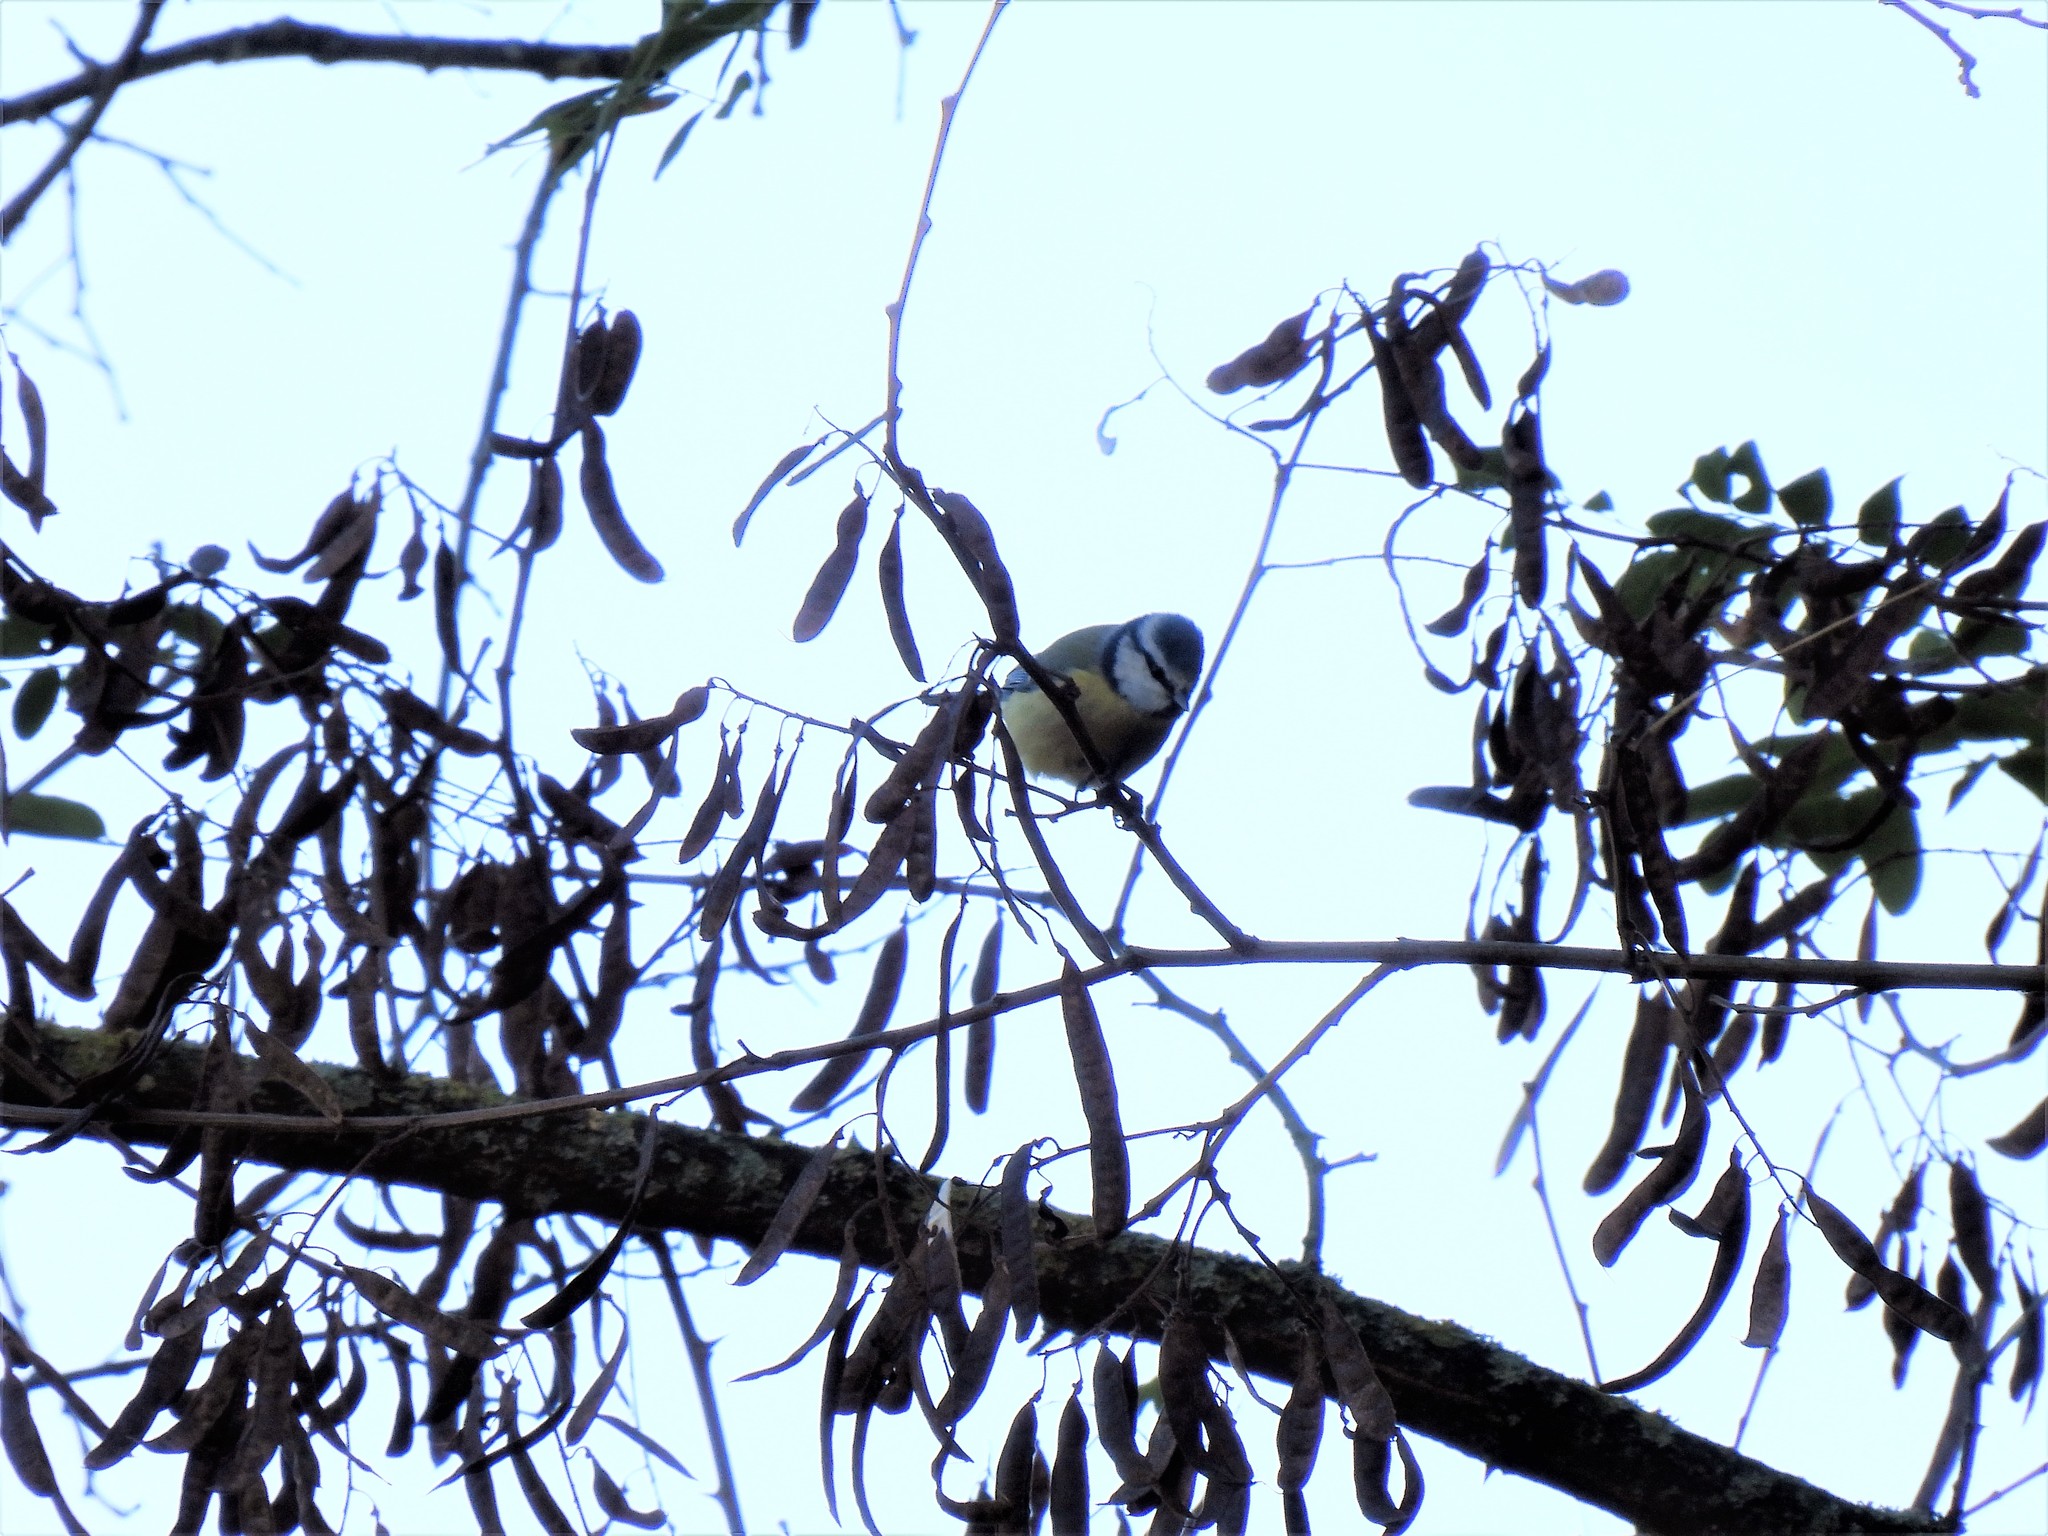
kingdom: Animalia
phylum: Chordata
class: Aves
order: Passeriformes
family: Paridae
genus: Cyanistes
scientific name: Cyanistes caeruleus
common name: Eurasian blue tit
